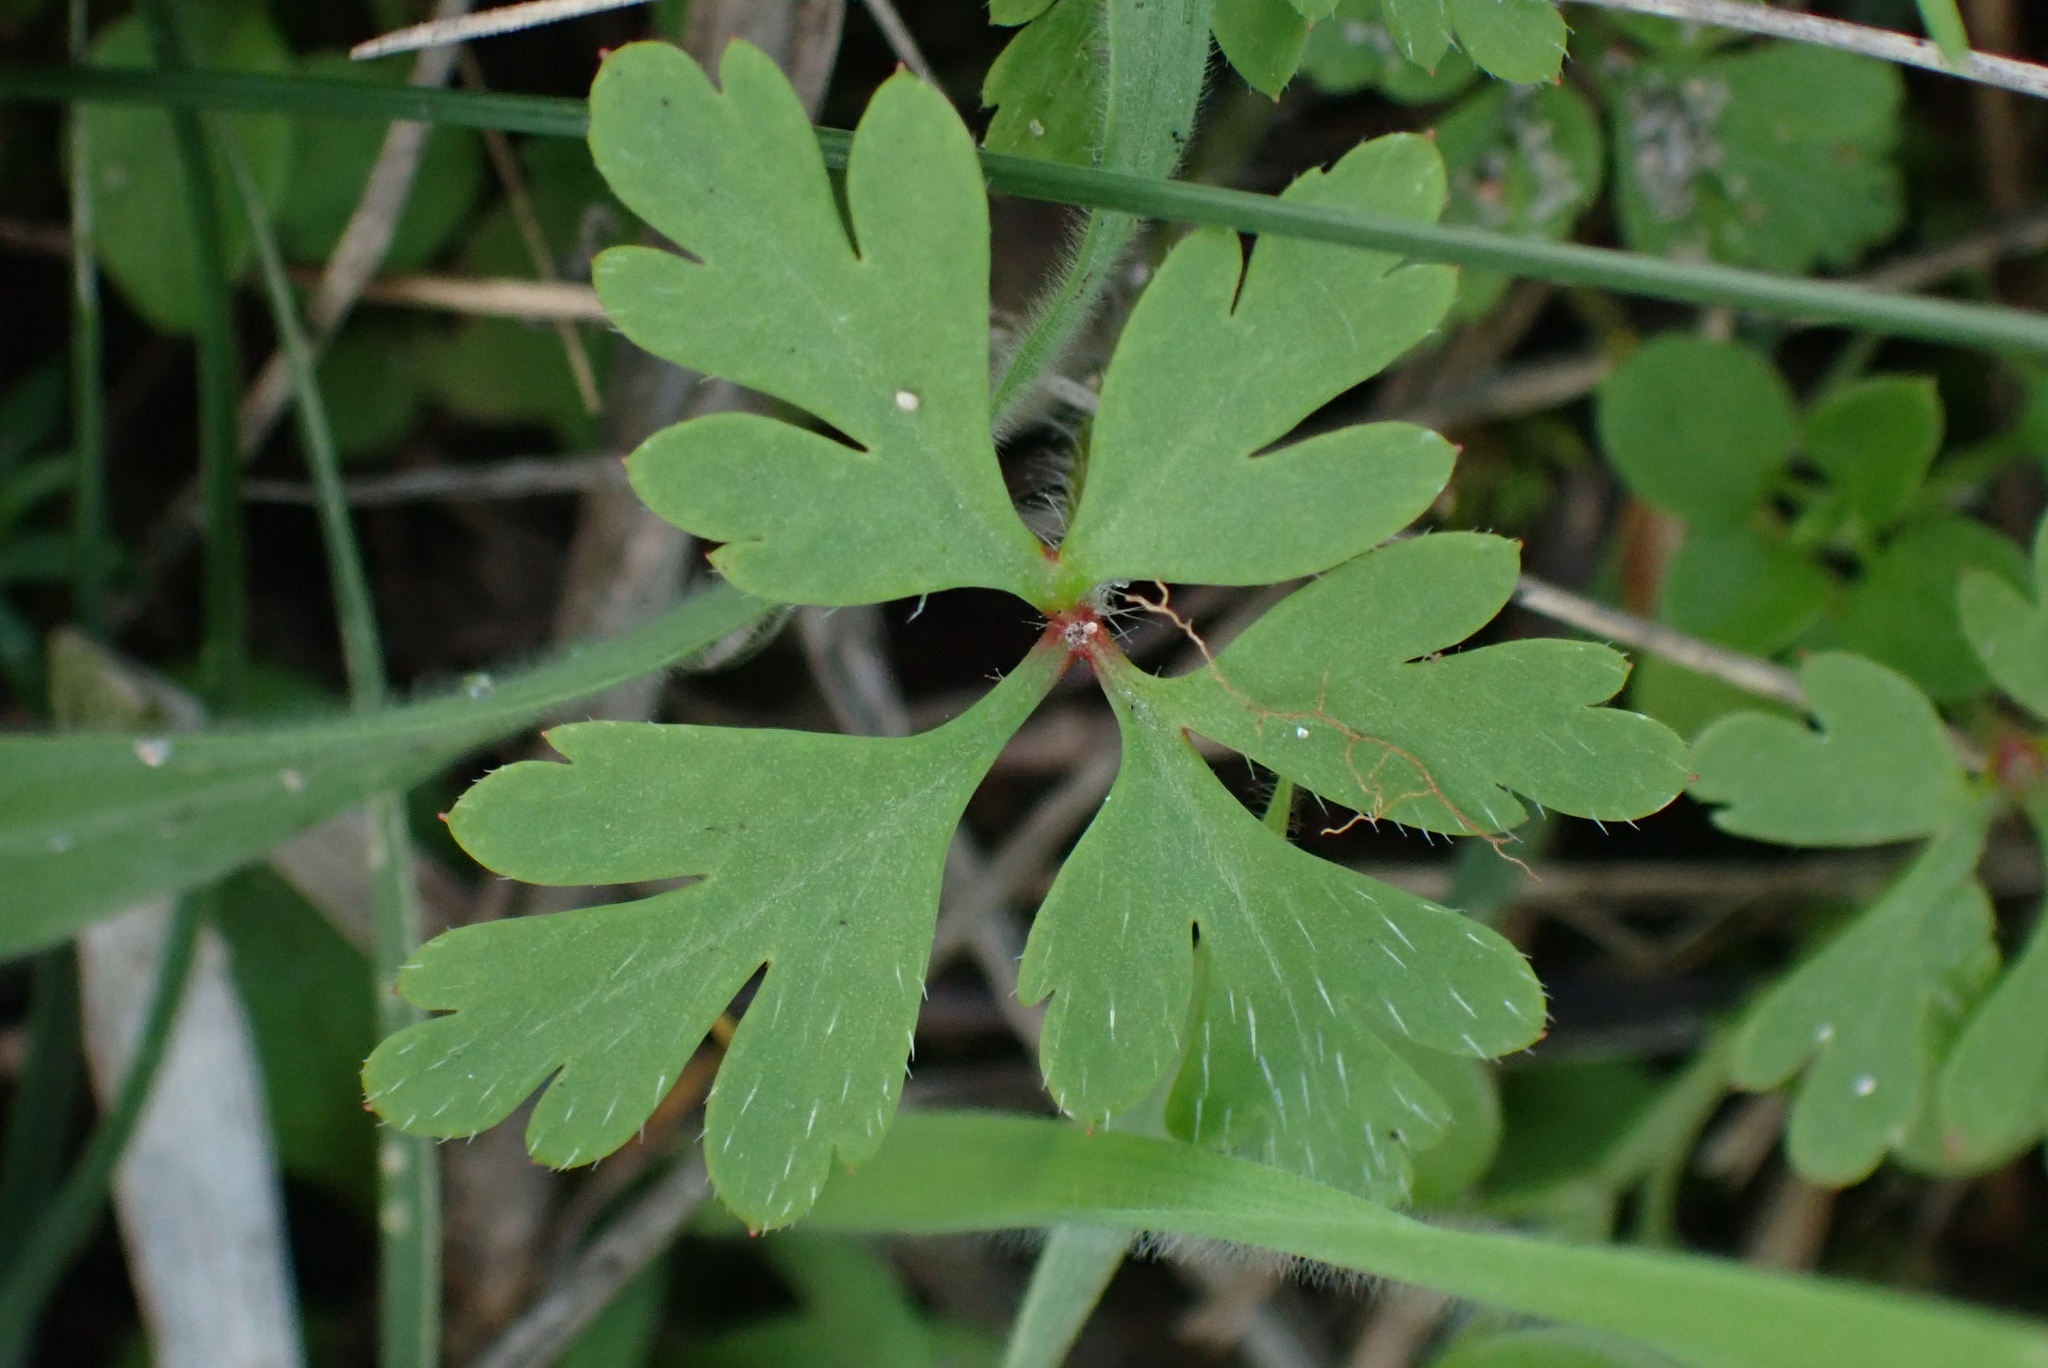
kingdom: Plantae
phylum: Tracheophyta
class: Magnoliopsida
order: Geraniales
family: Geraniaceae
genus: Geranium
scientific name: Geranium robertianum
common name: Herb-robert
